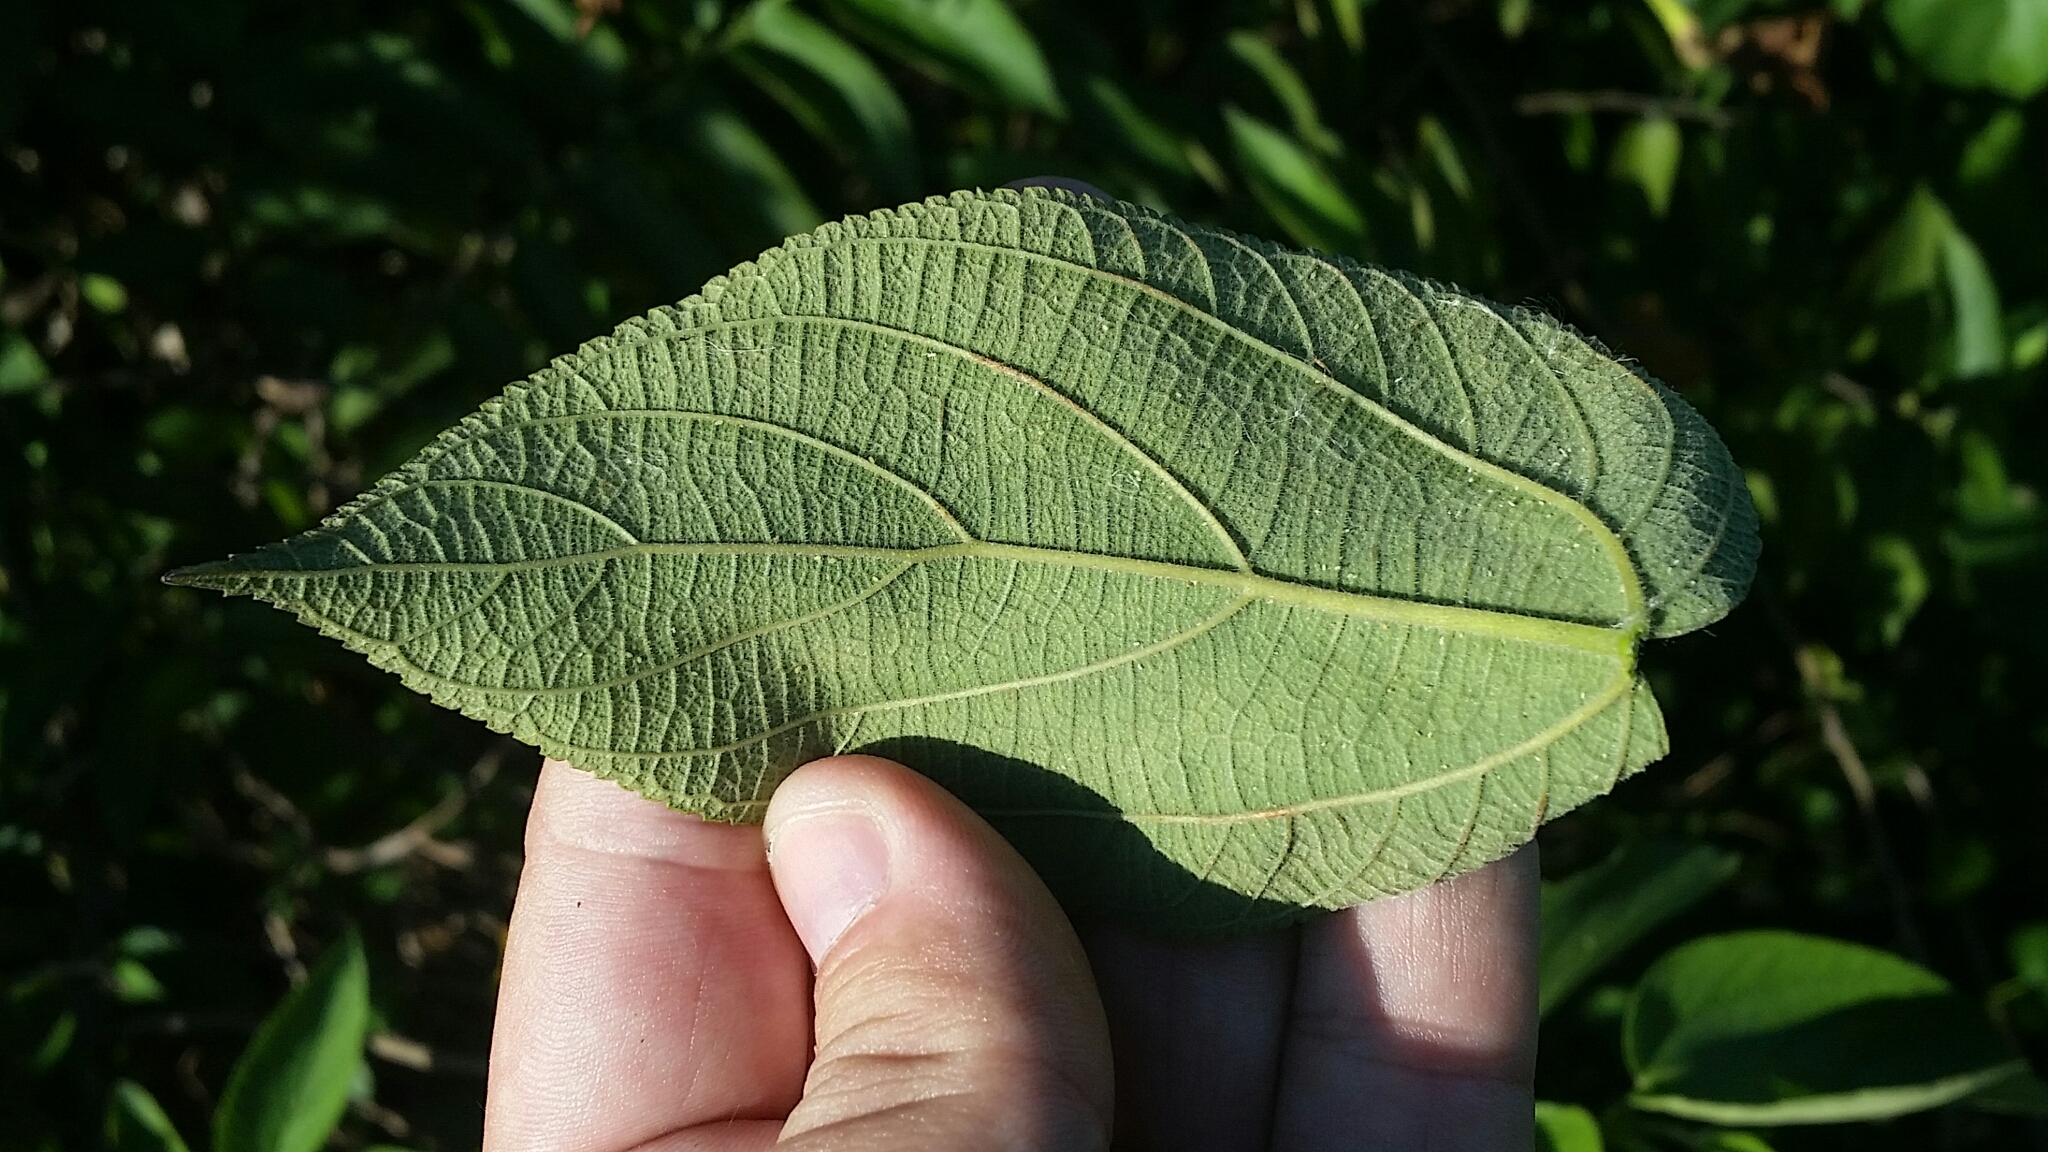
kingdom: Plantae
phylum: Tracheophyta
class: Magnoliopsida
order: Rosales
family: Cannabaceae
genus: Trema
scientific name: Trema micranthum
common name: Jamaican nettletree
